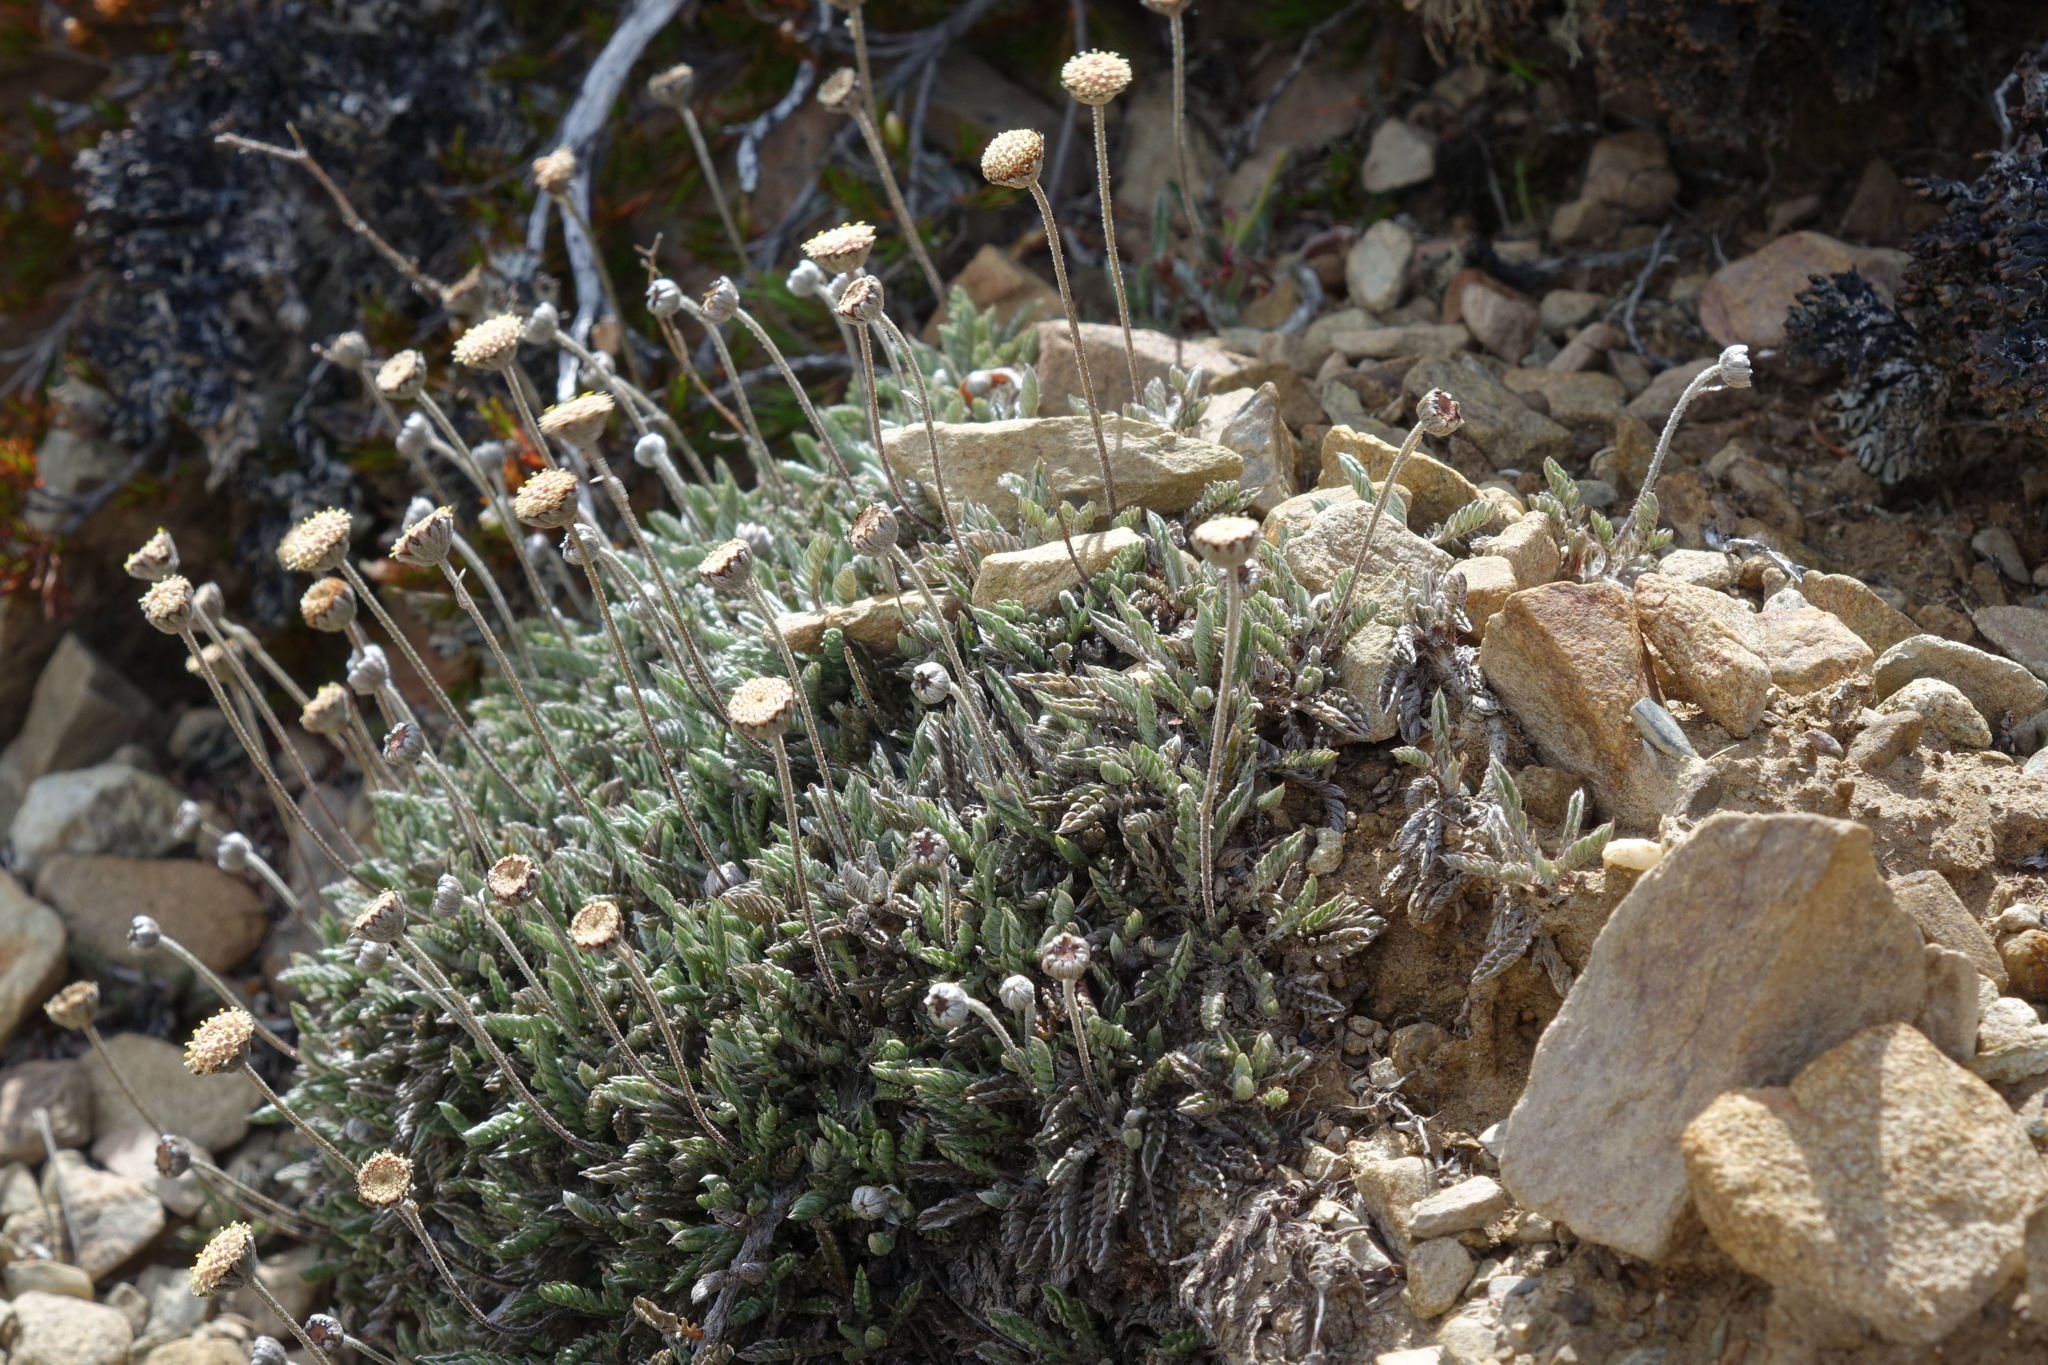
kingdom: Plantae
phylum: Tracheophyta
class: Magnoliopsida
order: Asterales
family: Asteraceae
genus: Leptinella
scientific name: Leptinella pectinata
